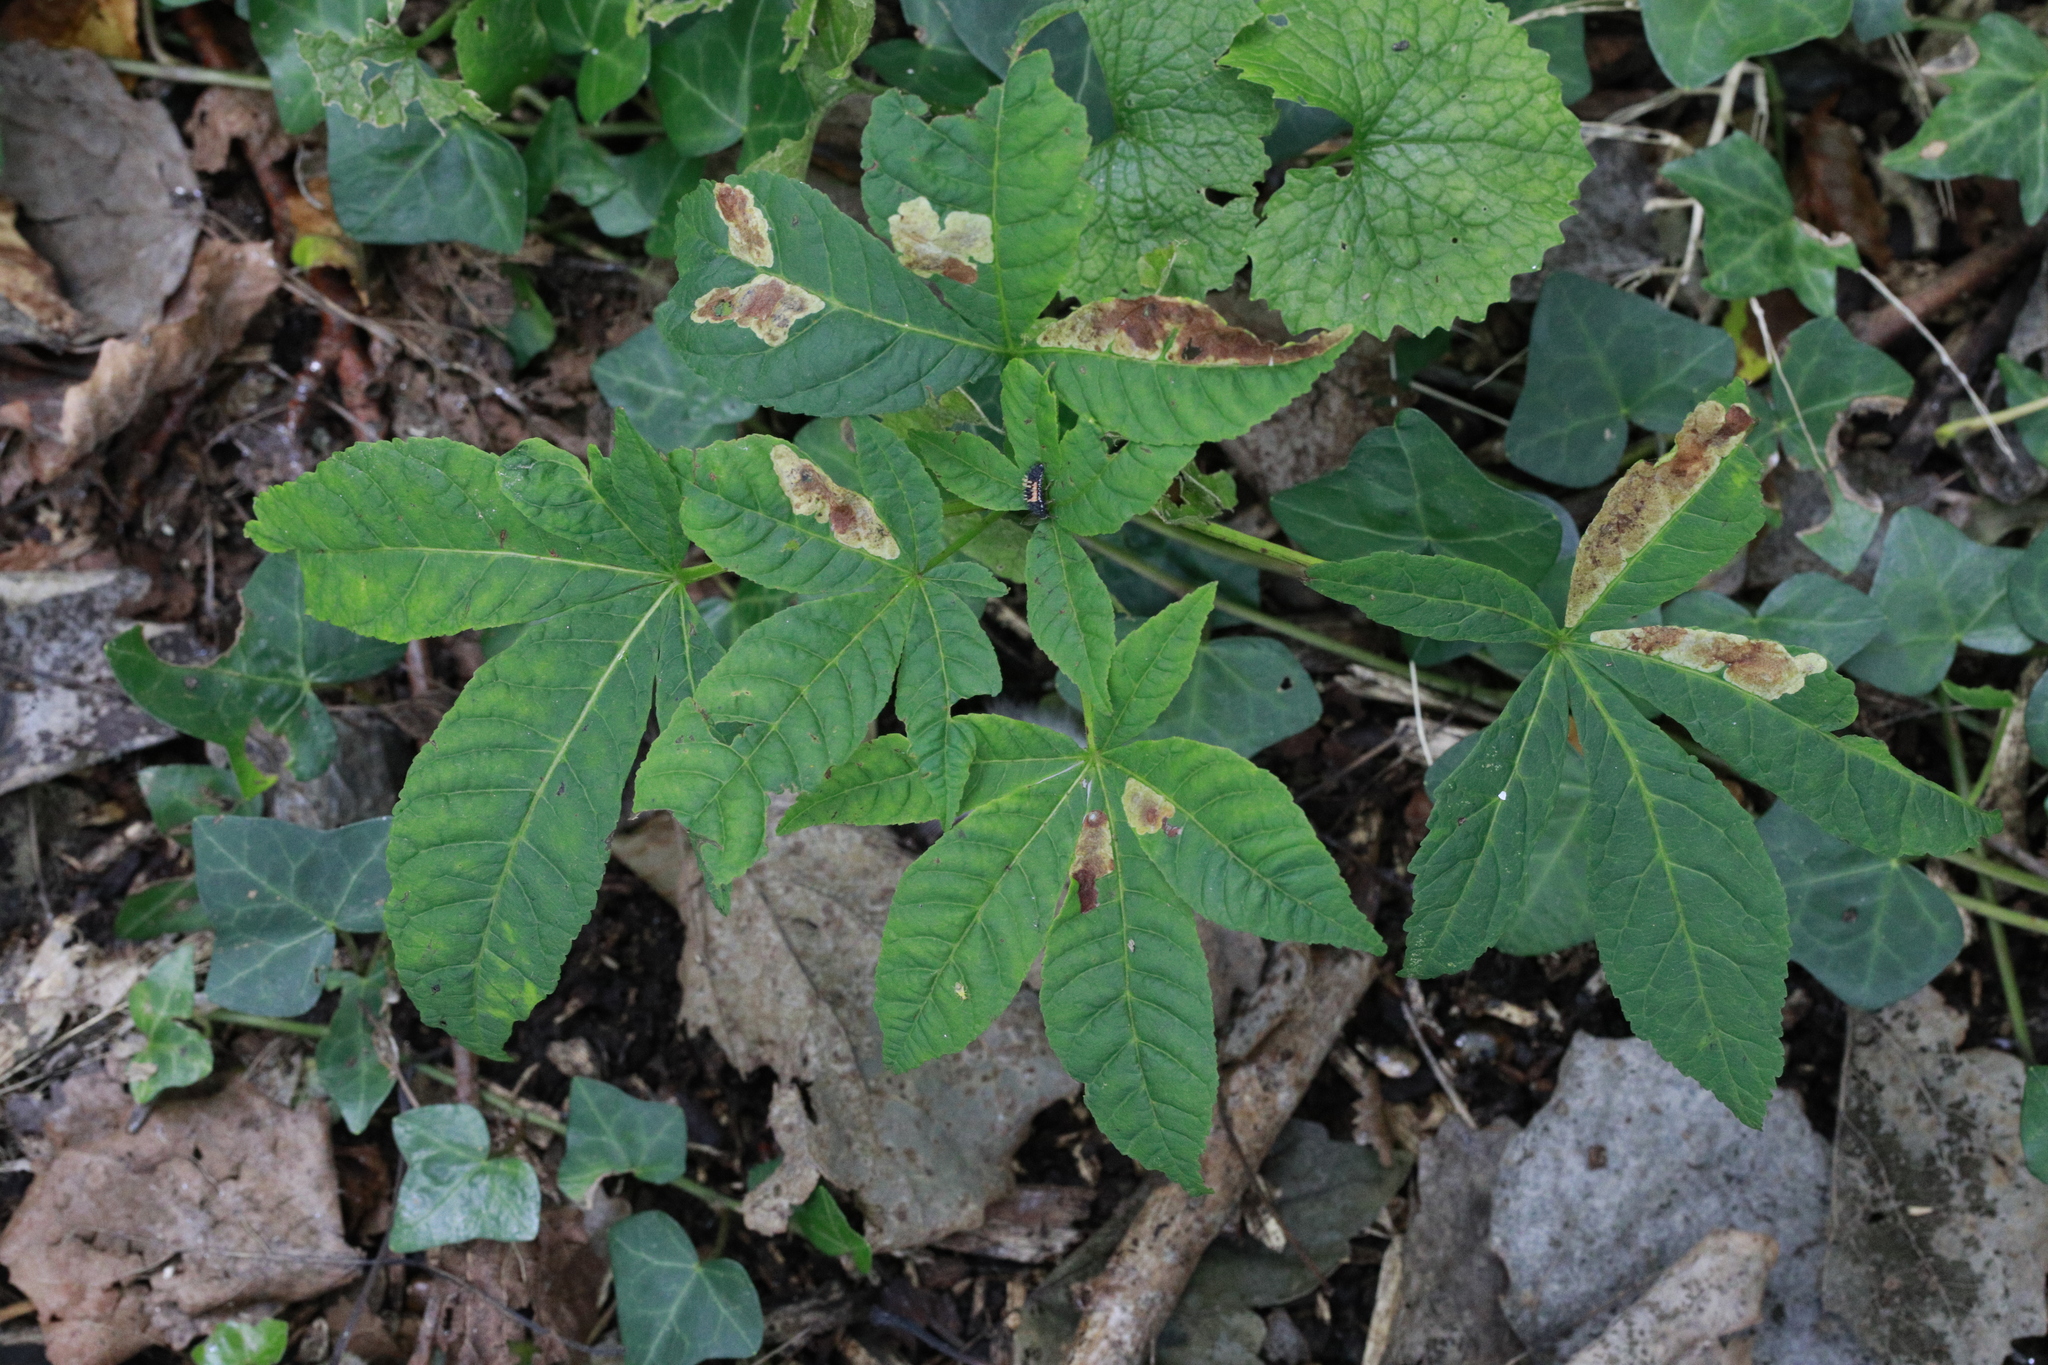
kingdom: Animalia
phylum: Arthropoda
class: Insecta
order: Lepidoptera
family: Gracillariidae
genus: Cameraria
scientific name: Cameraria ohridella
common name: Horse-chestnut leaf-miner
